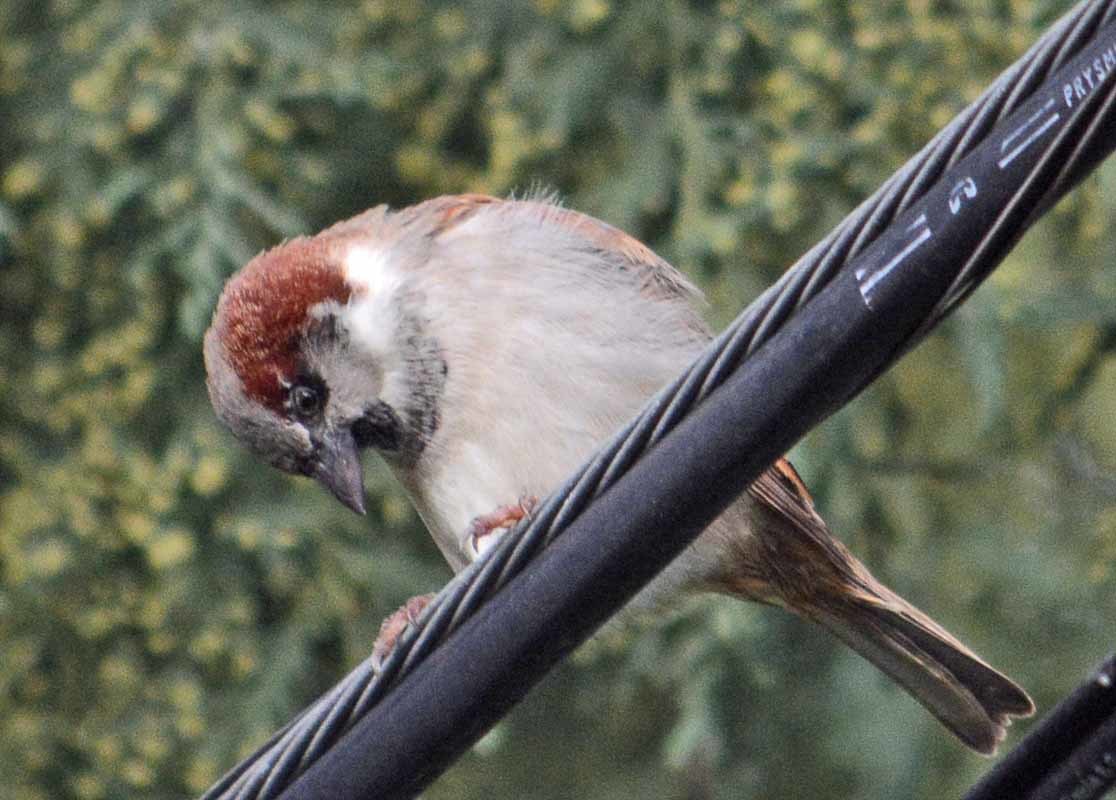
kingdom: Animalia
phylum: Chordata
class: Aves
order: Passeriformes
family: Passeridae
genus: Passer
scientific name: Passer domesticus
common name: House sparrow
